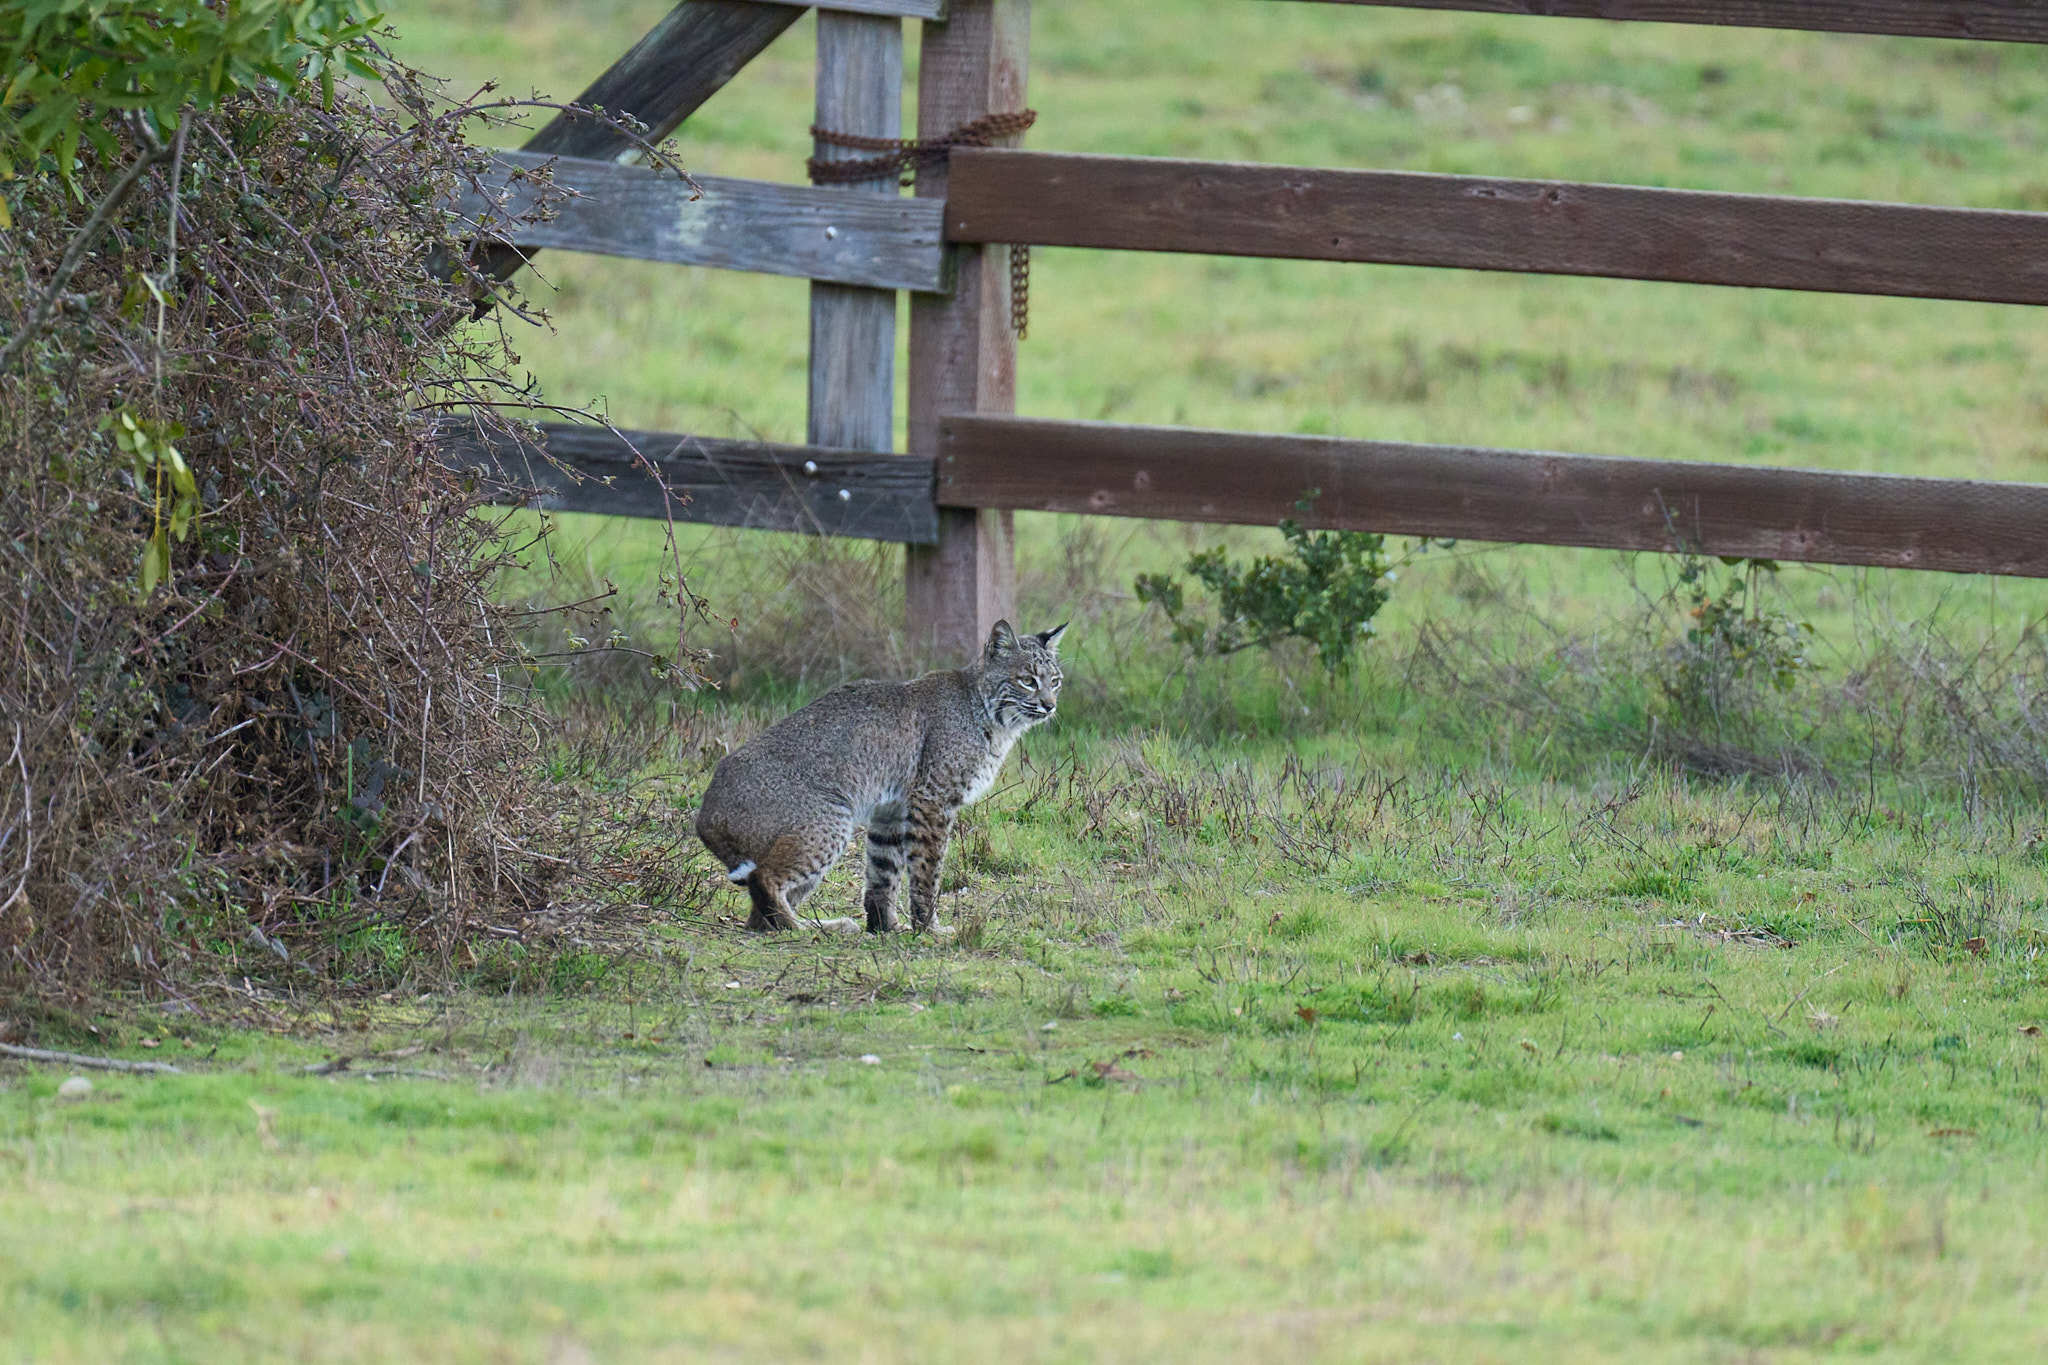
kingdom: Animalia
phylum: Chordata
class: Mammalia
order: Carnivora
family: Felidae
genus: Lynx
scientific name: Lynx rufus
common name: Bobcat
